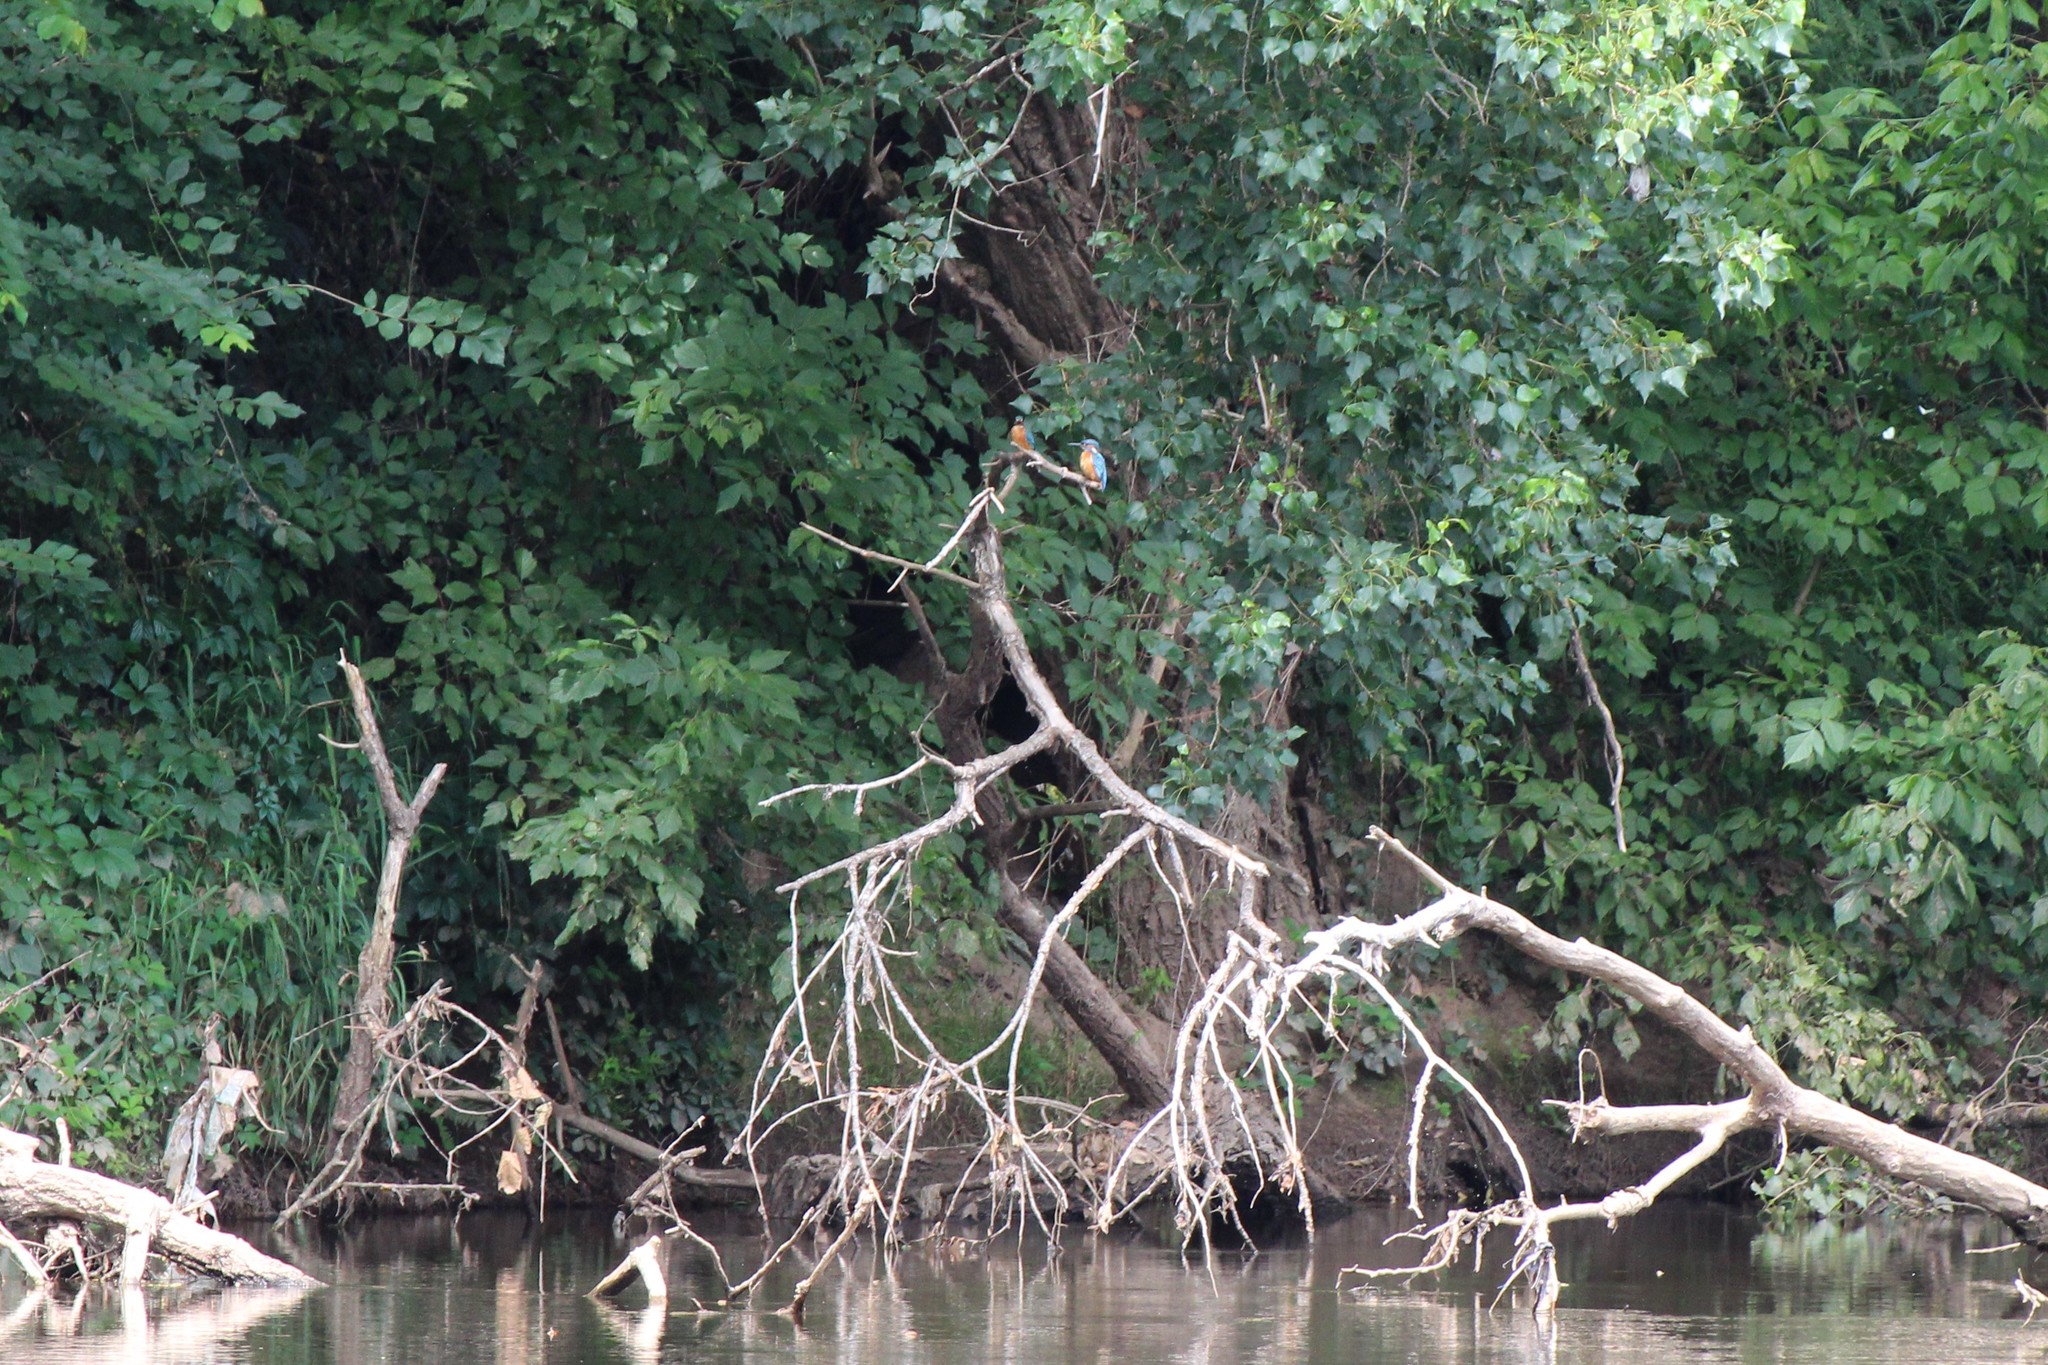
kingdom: Animalia
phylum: Chordata
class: Aves
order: Coraciiformes
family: Alcedinidae
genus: Alcedo
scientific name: Alcedo atthis
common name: Common kingfisher
